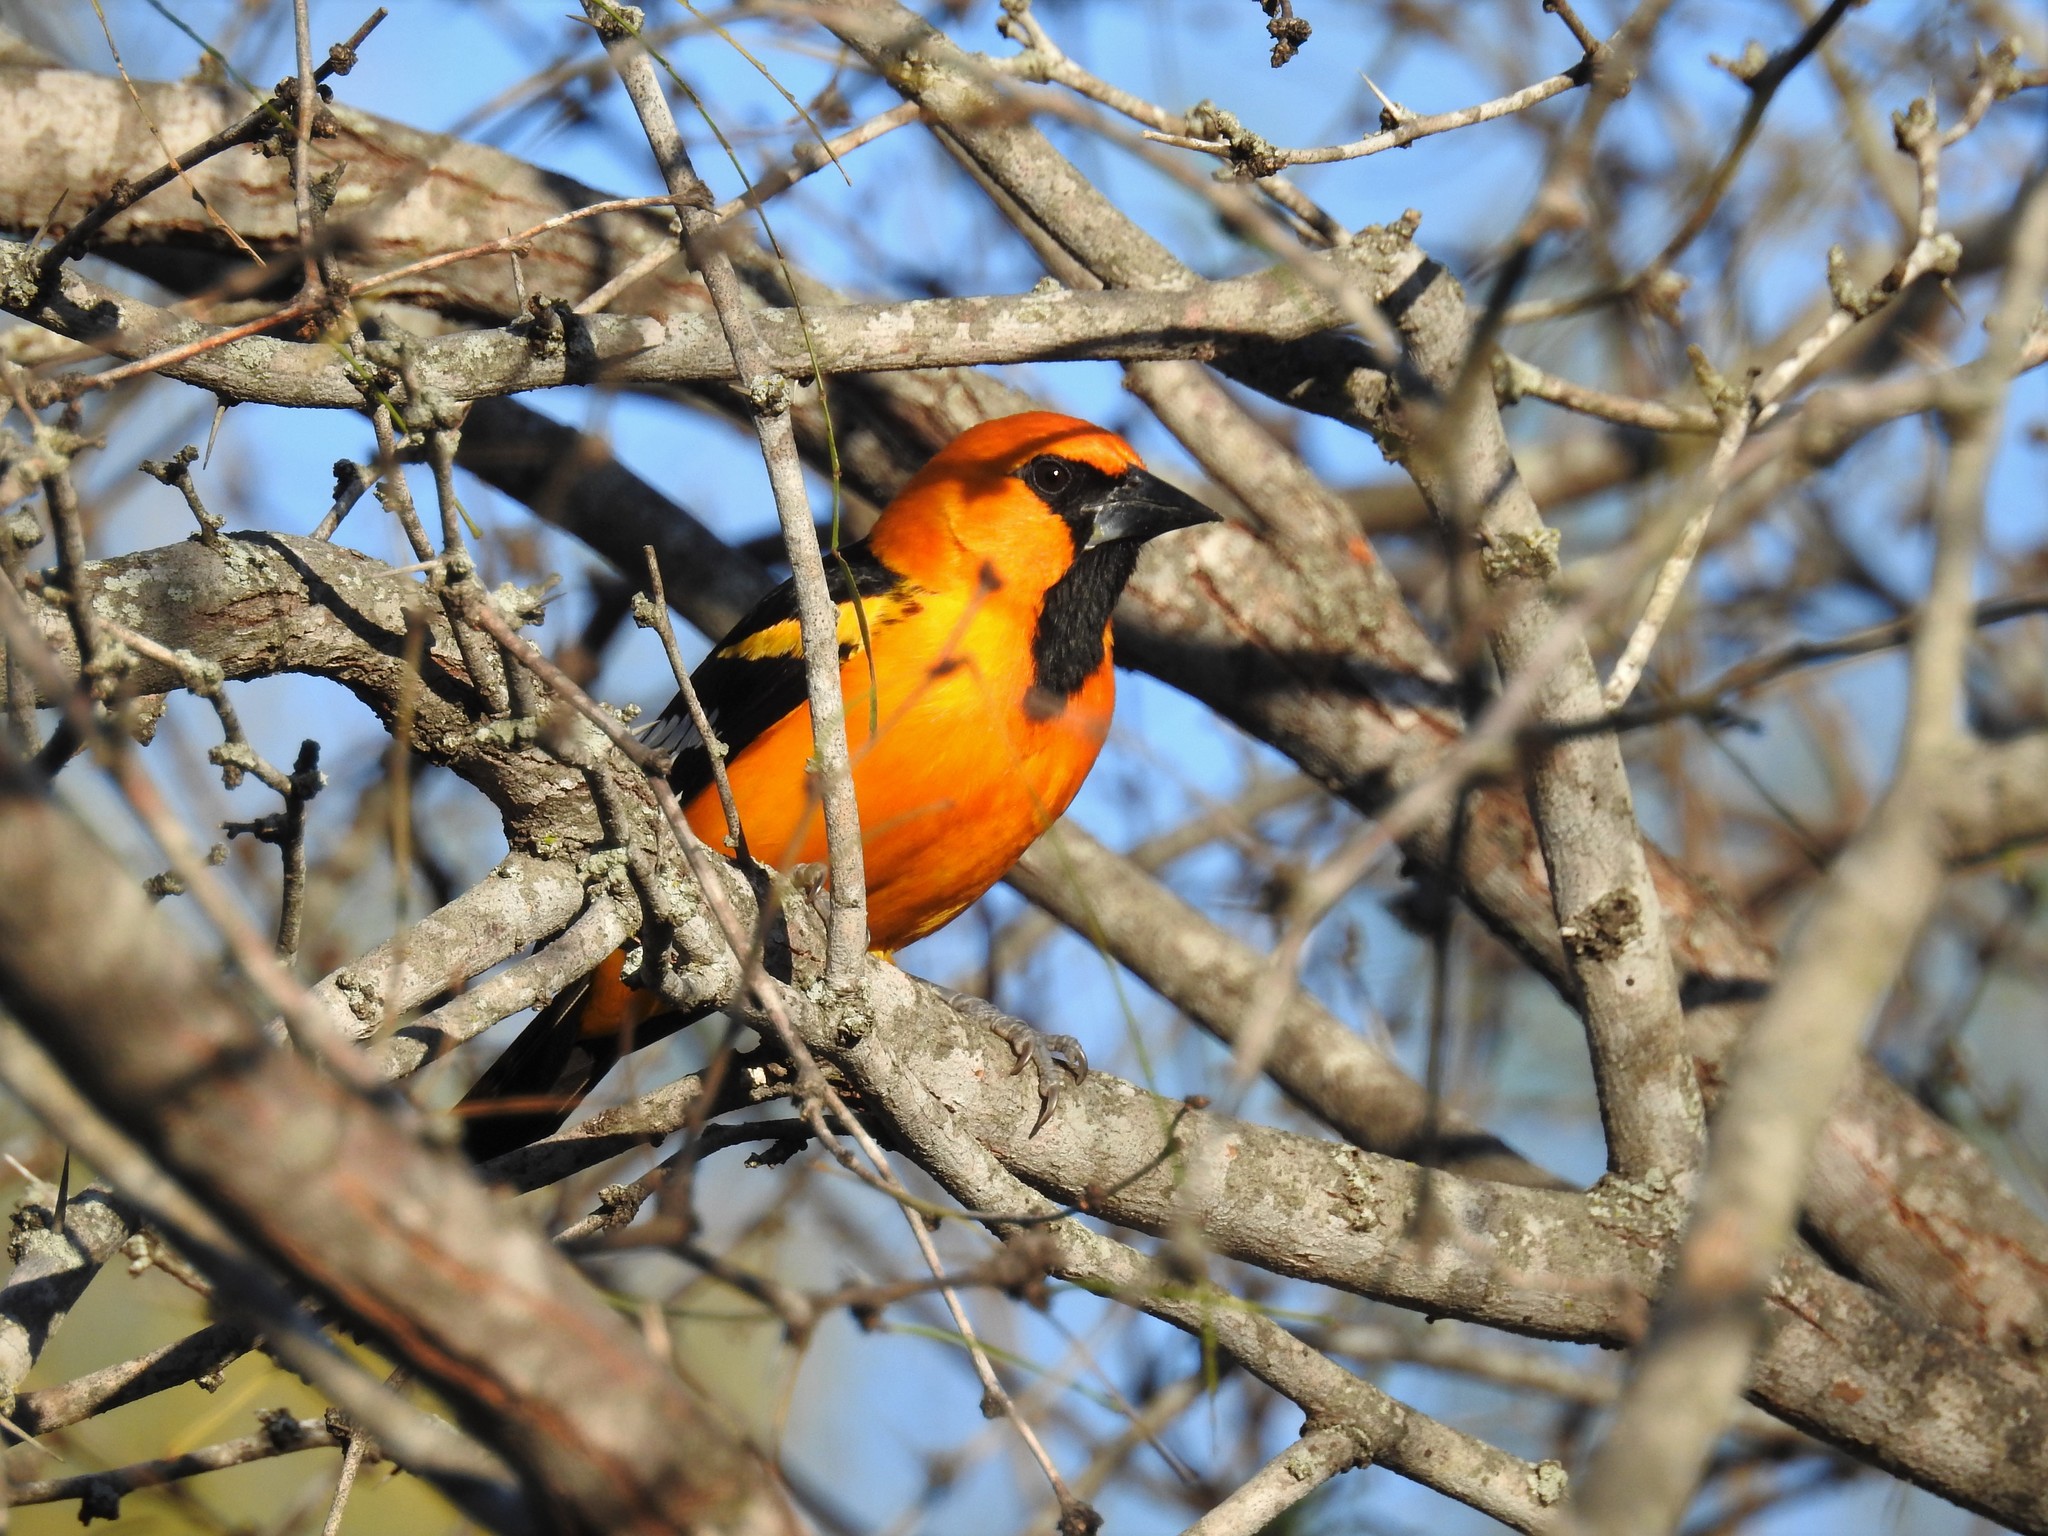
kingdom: Animalia
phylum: Chordata
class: Aves
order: Passeriformes
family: Icteridae
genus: Icterus
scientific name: Icterus gularis
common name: Altamira oriole
